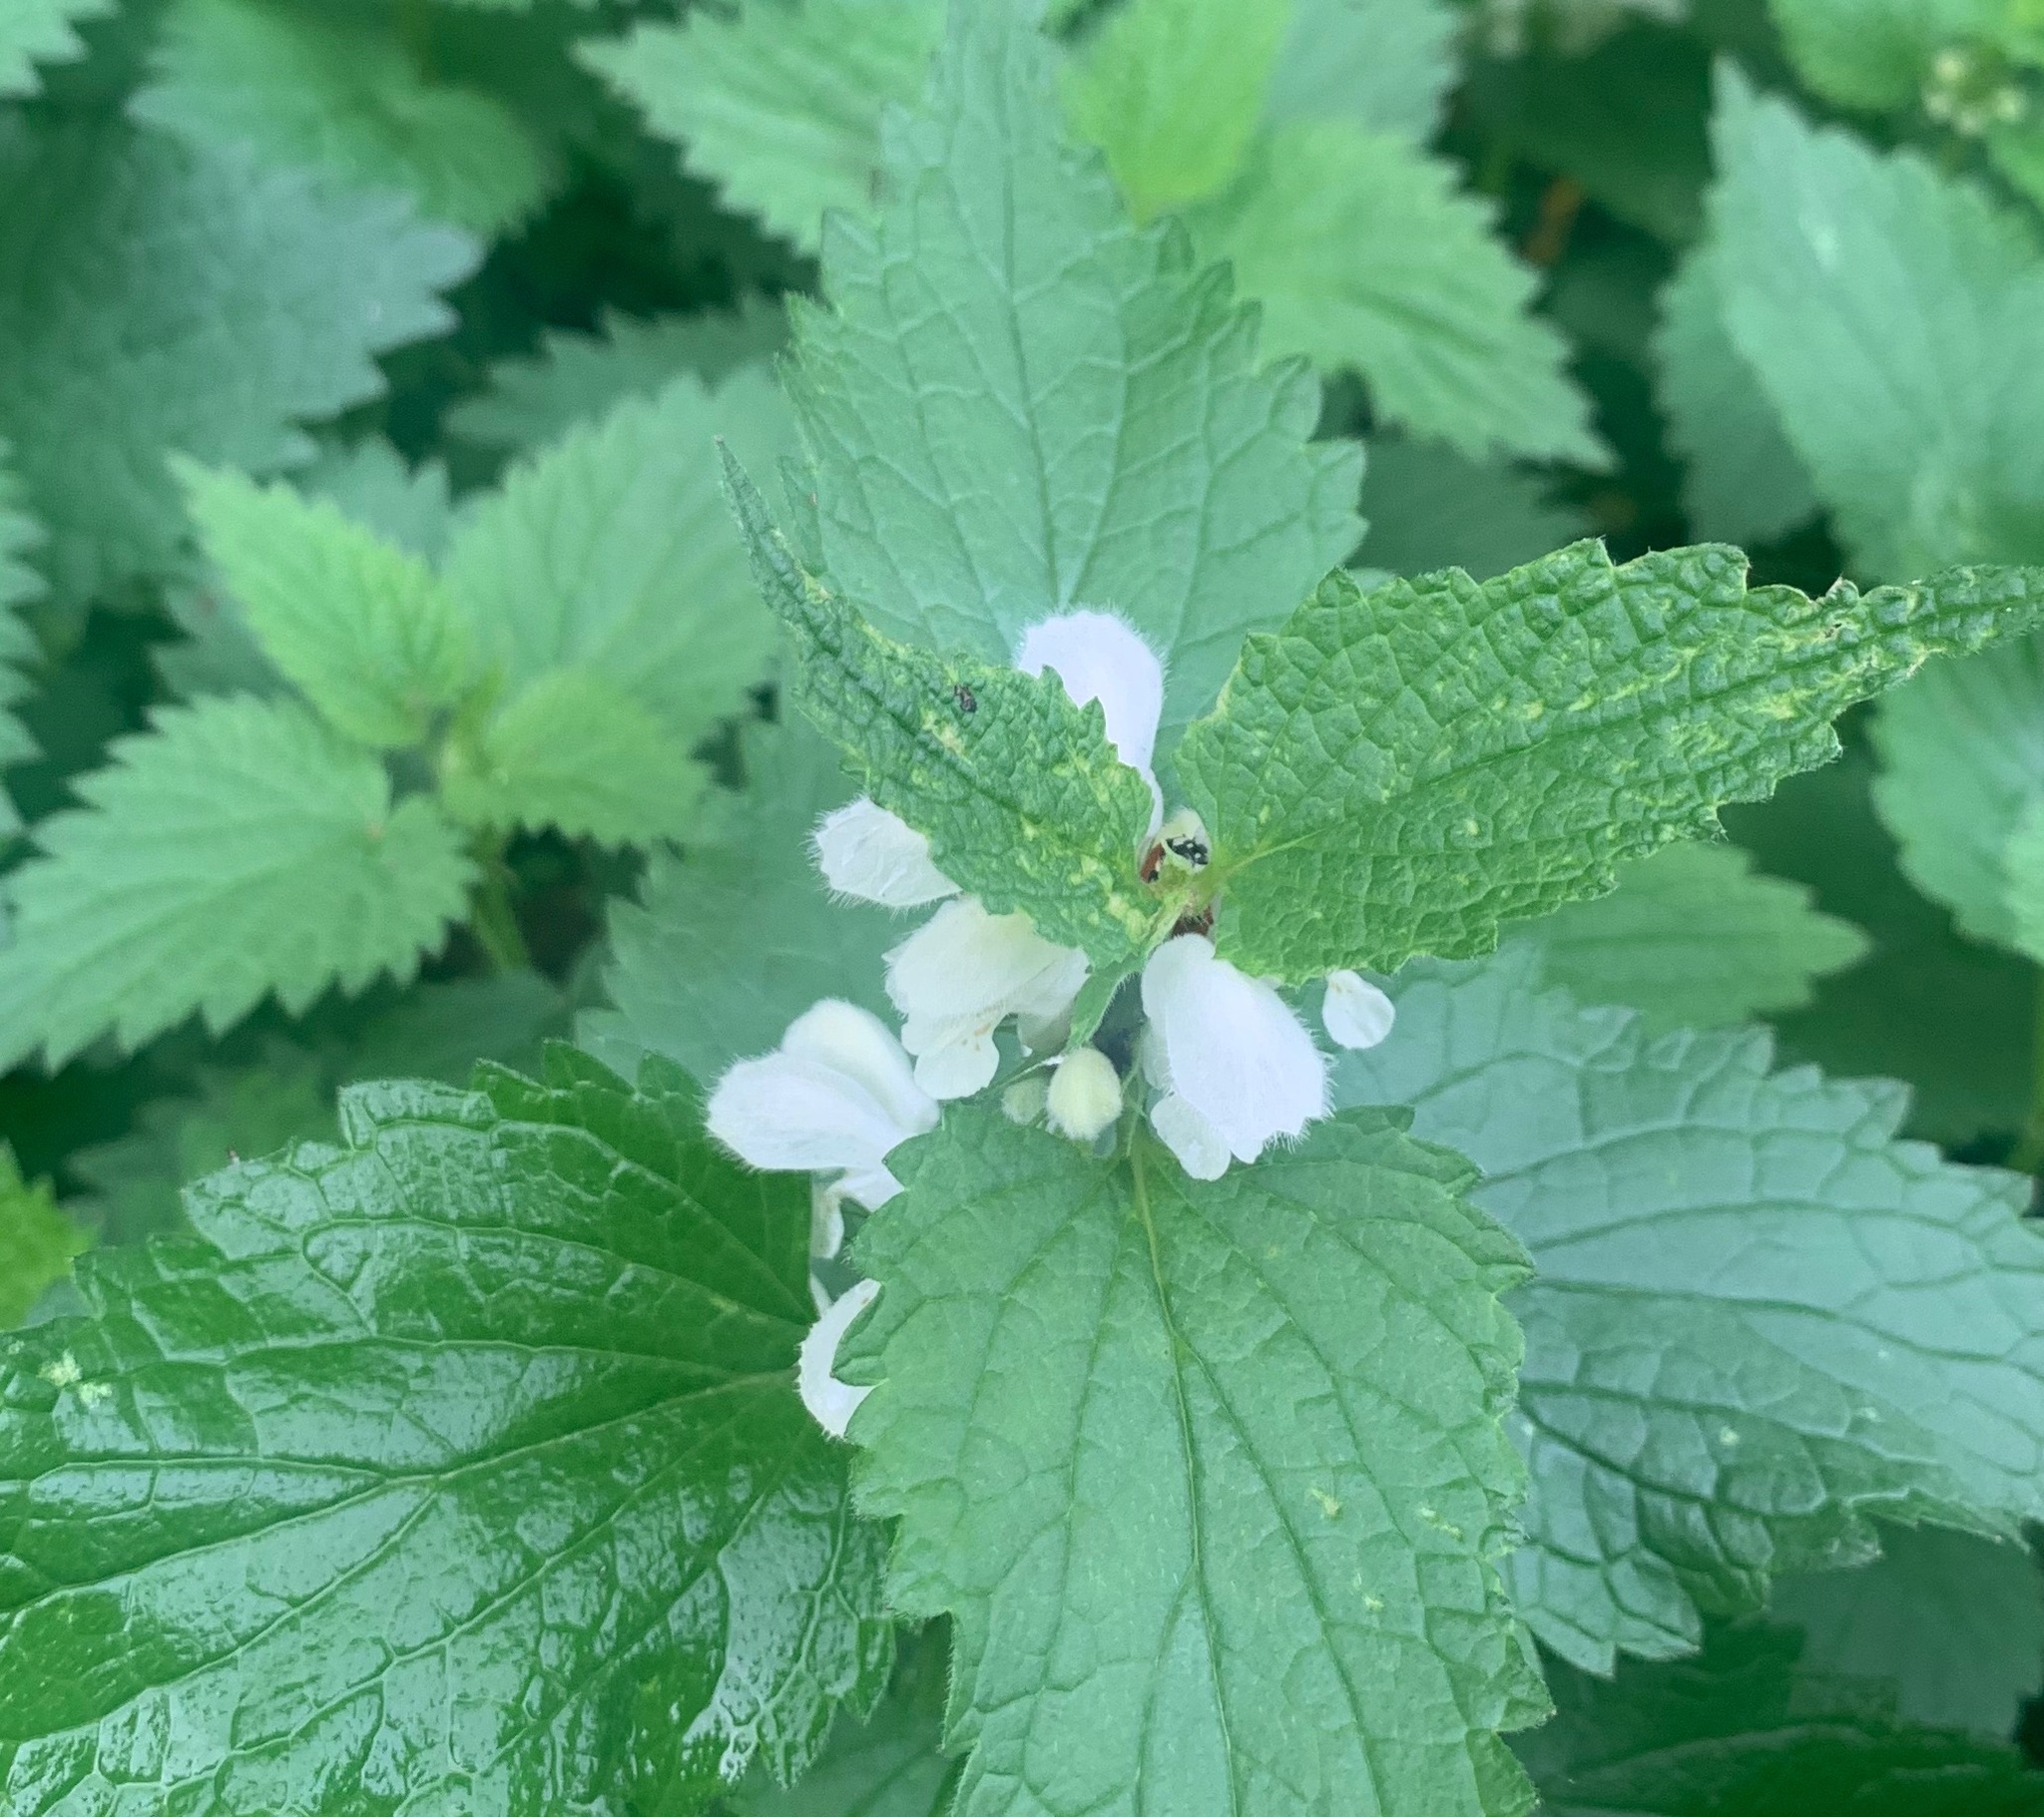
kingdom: Plantae
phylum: Tracheophyta
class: Magnoliopsida
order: Lamiales
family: Lamiaceae
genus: Lamium
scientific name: Lamium album
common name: White dead-nettle
